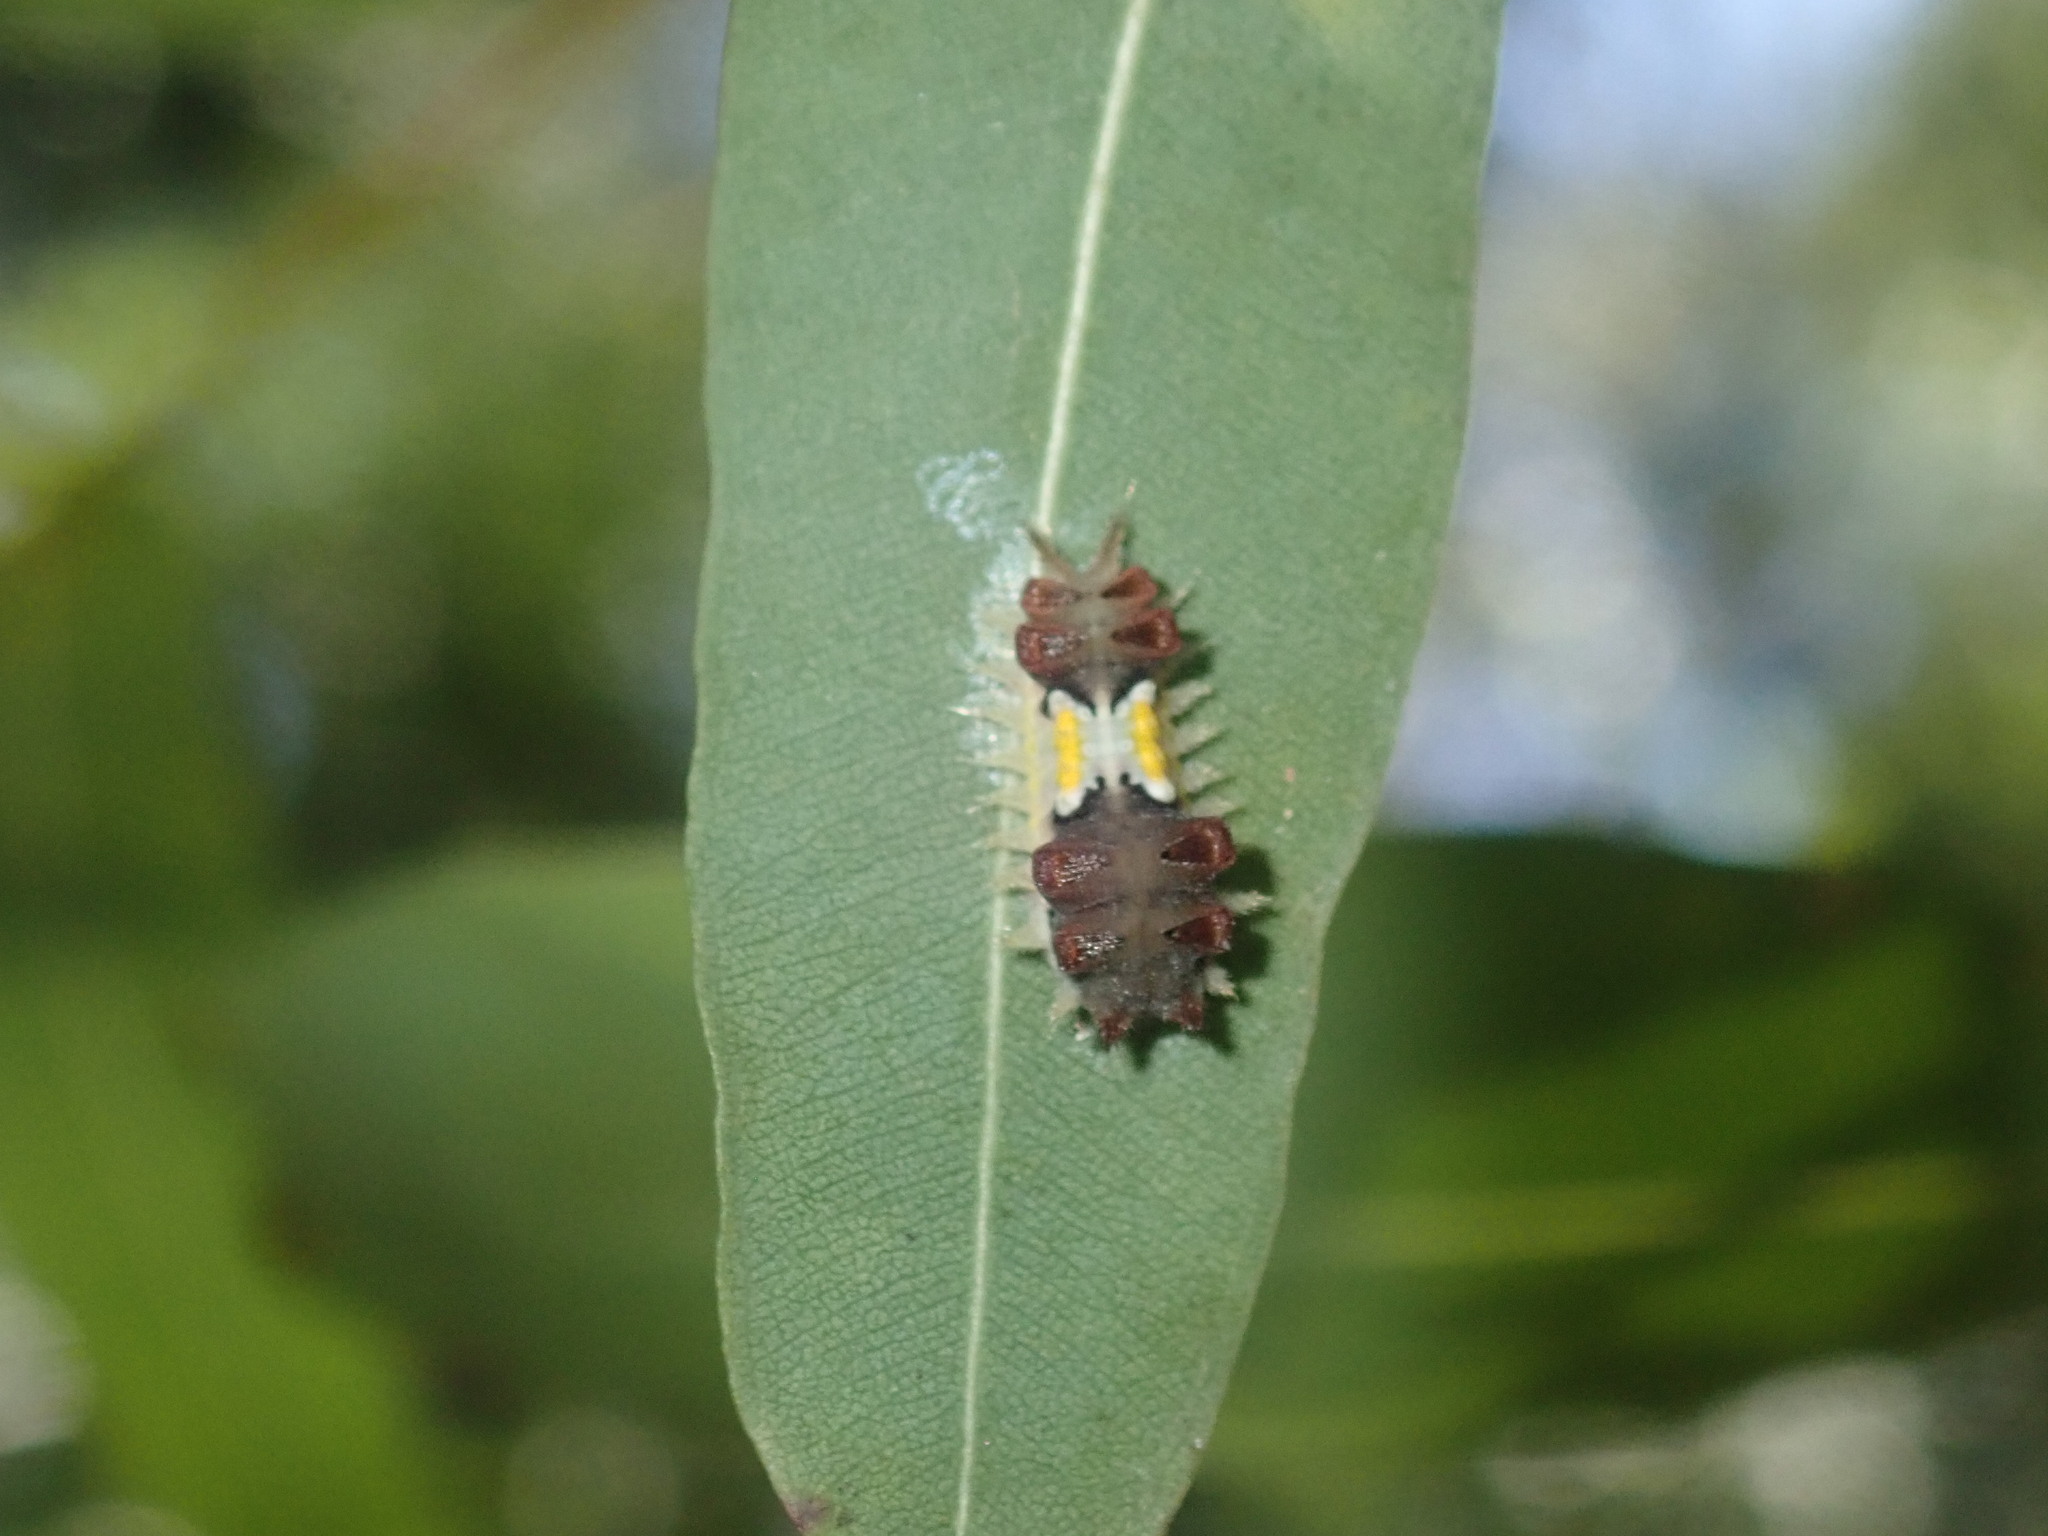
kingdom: Animalia
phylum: Arthropoda
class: Insecta
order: Lepidoptera
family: Limacodidae
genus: Doratifera
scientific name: Doratifera vulnerans
